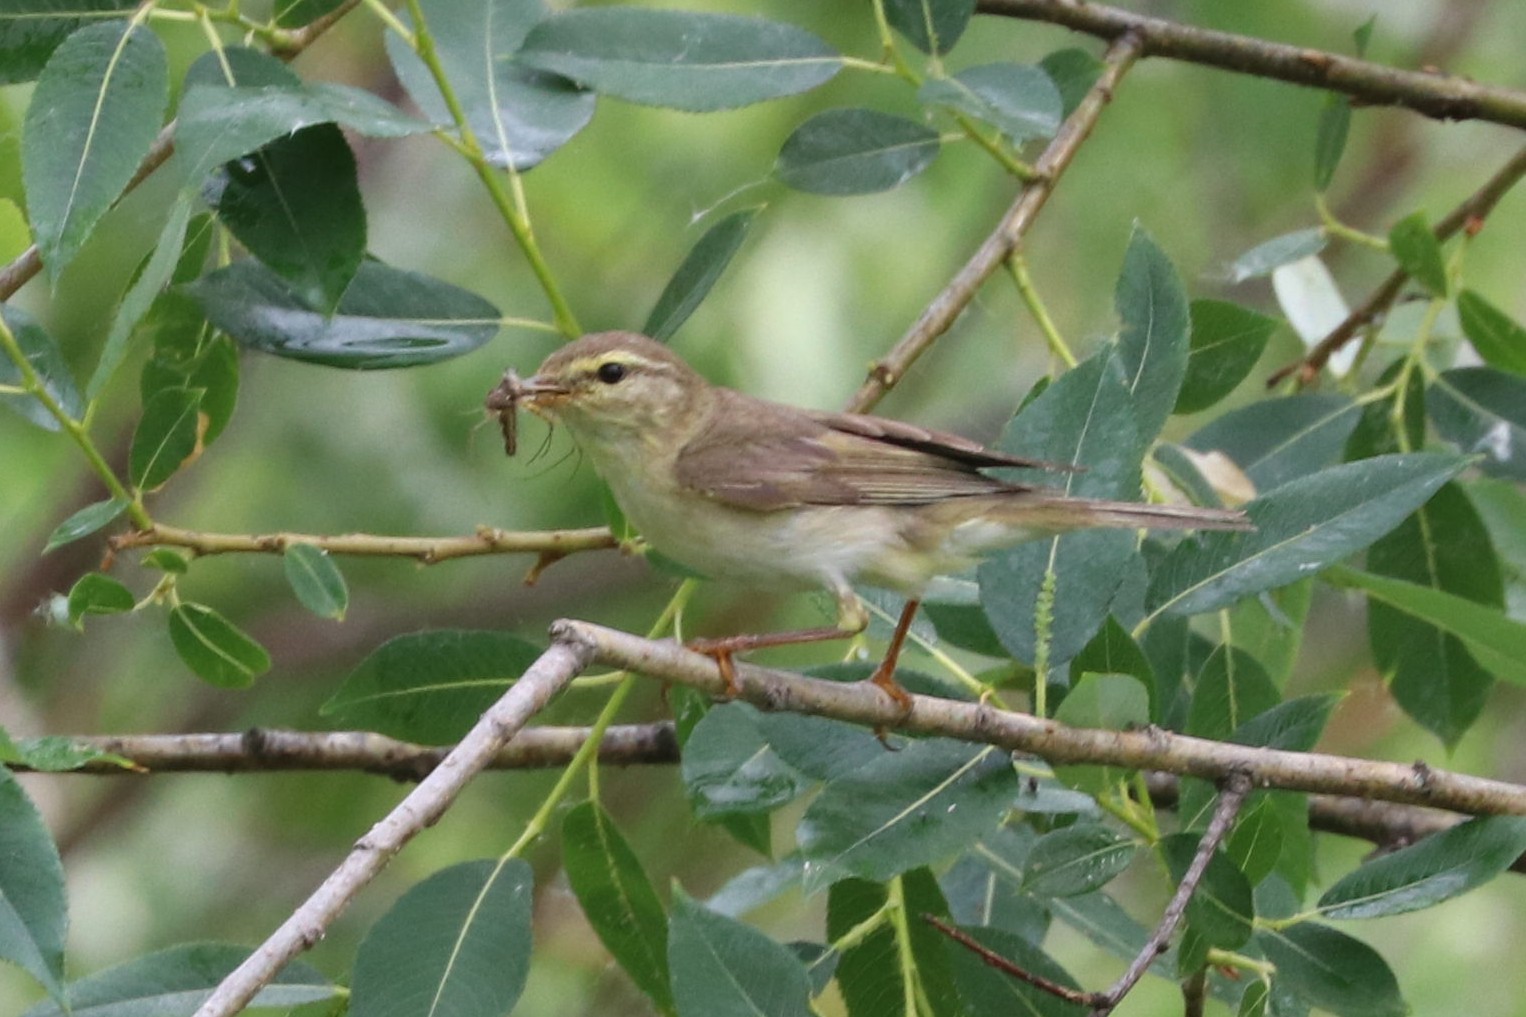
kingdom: Animalia
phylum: Chordata
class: Aves
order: Passeriformes
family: Phylloscopidae
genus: Phylloscopus
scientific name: Phylloscopus trochilus
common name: Willow warbler
